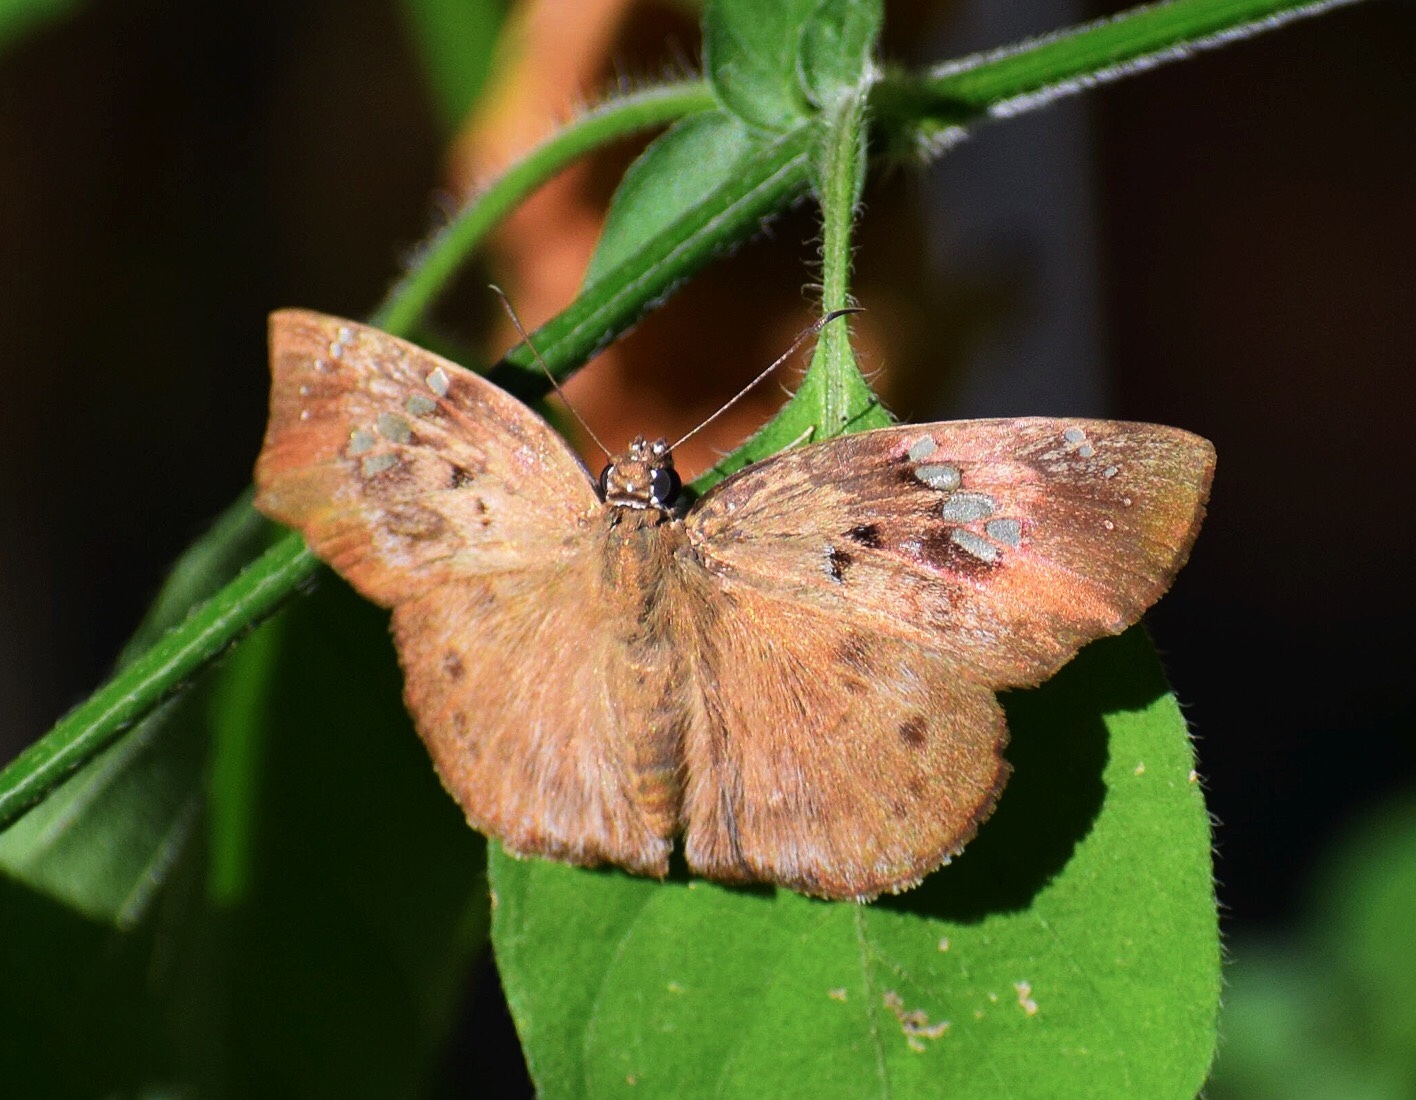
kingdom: Animalia
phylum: Arthropoda
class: Insecta
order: Lepidoptera
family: Hesperiidae
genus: Tagiades
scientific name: Tagiades flesus
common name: Clouded flat
